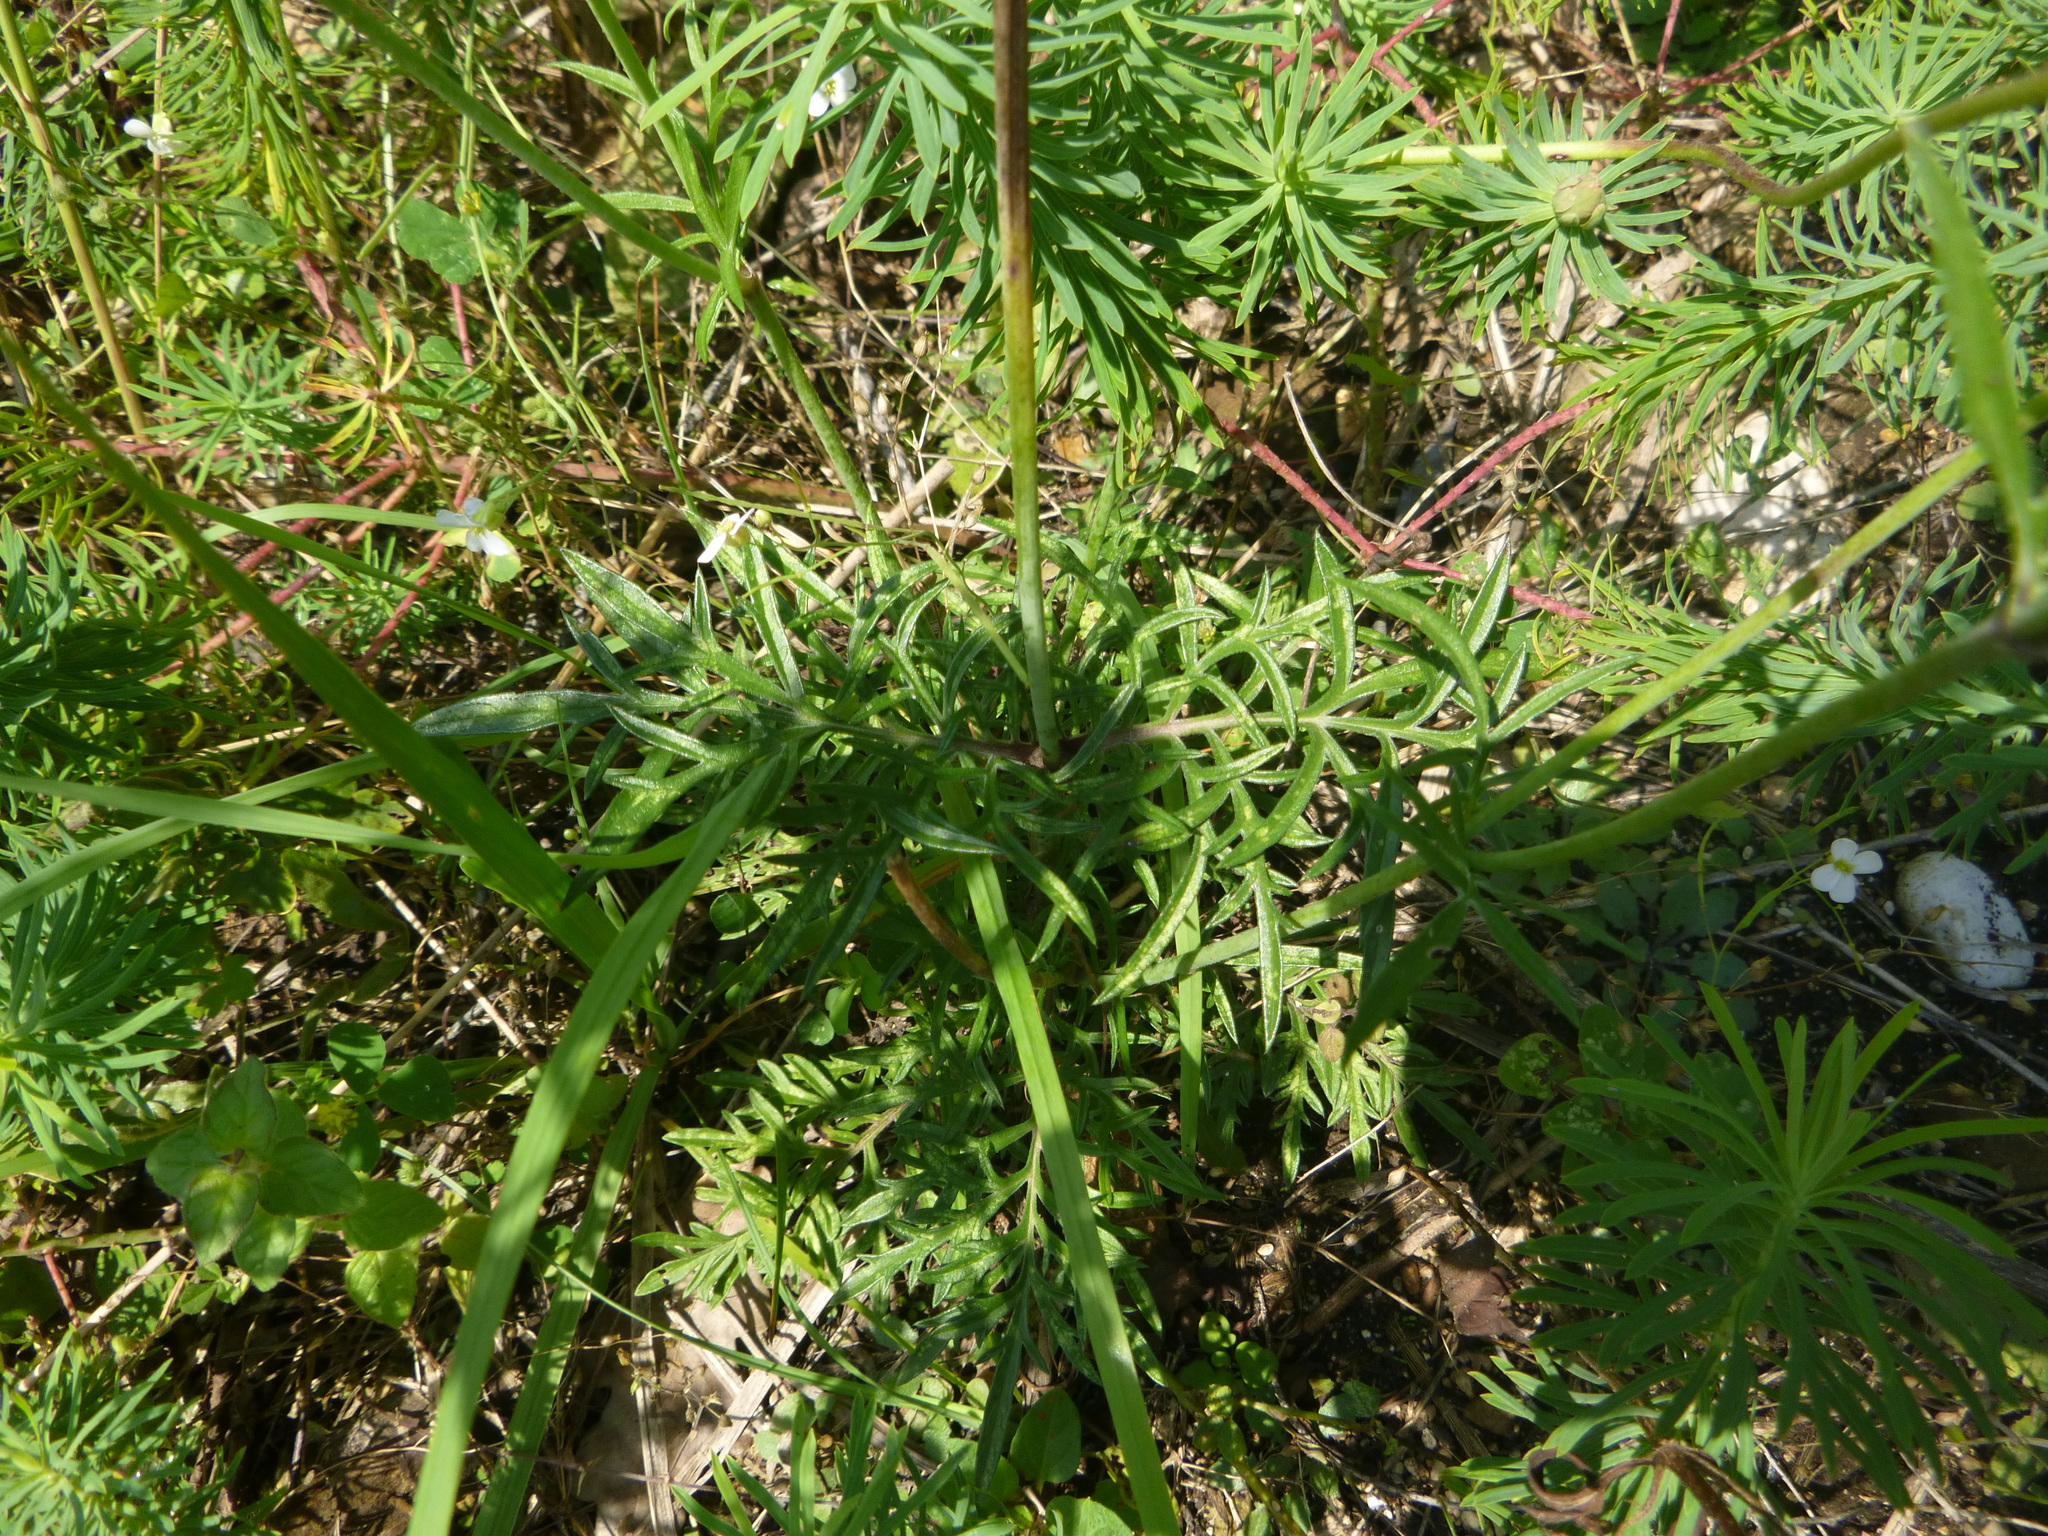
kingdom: Plantae
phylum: Tracheophyta
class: Magnoliopsida
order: Dipsacales
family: Caprifoliaceae
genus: Scabiosa
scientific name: Scabiosa ochroleuca
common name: Cream pincushions
